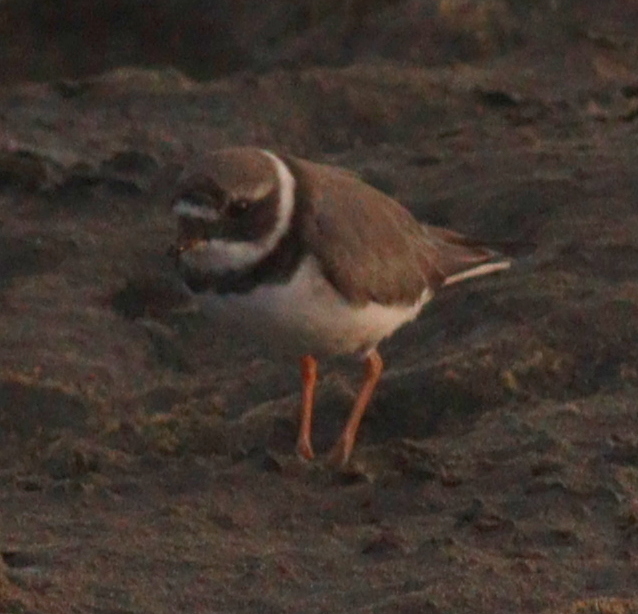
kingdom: Animalia
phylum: Chordata
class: Aves
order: Charadriiformes
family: Charadriidae
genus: Charadrius
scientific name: Charadrius hiaticula
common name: Common ringed plover
